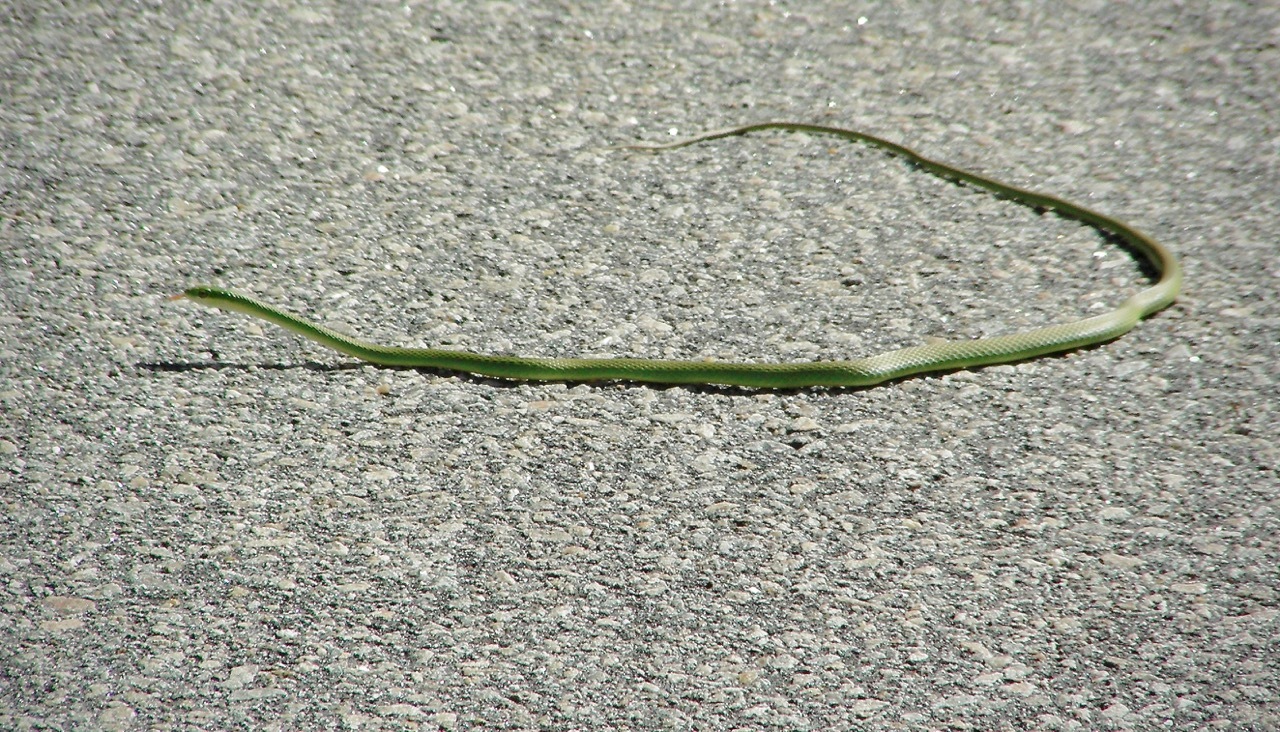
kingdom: Animalia
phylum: Chordata
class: Squamata
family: Colubridae
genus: Opheodrys
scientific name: Opheodrys aestivus
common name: Rough greensnake
